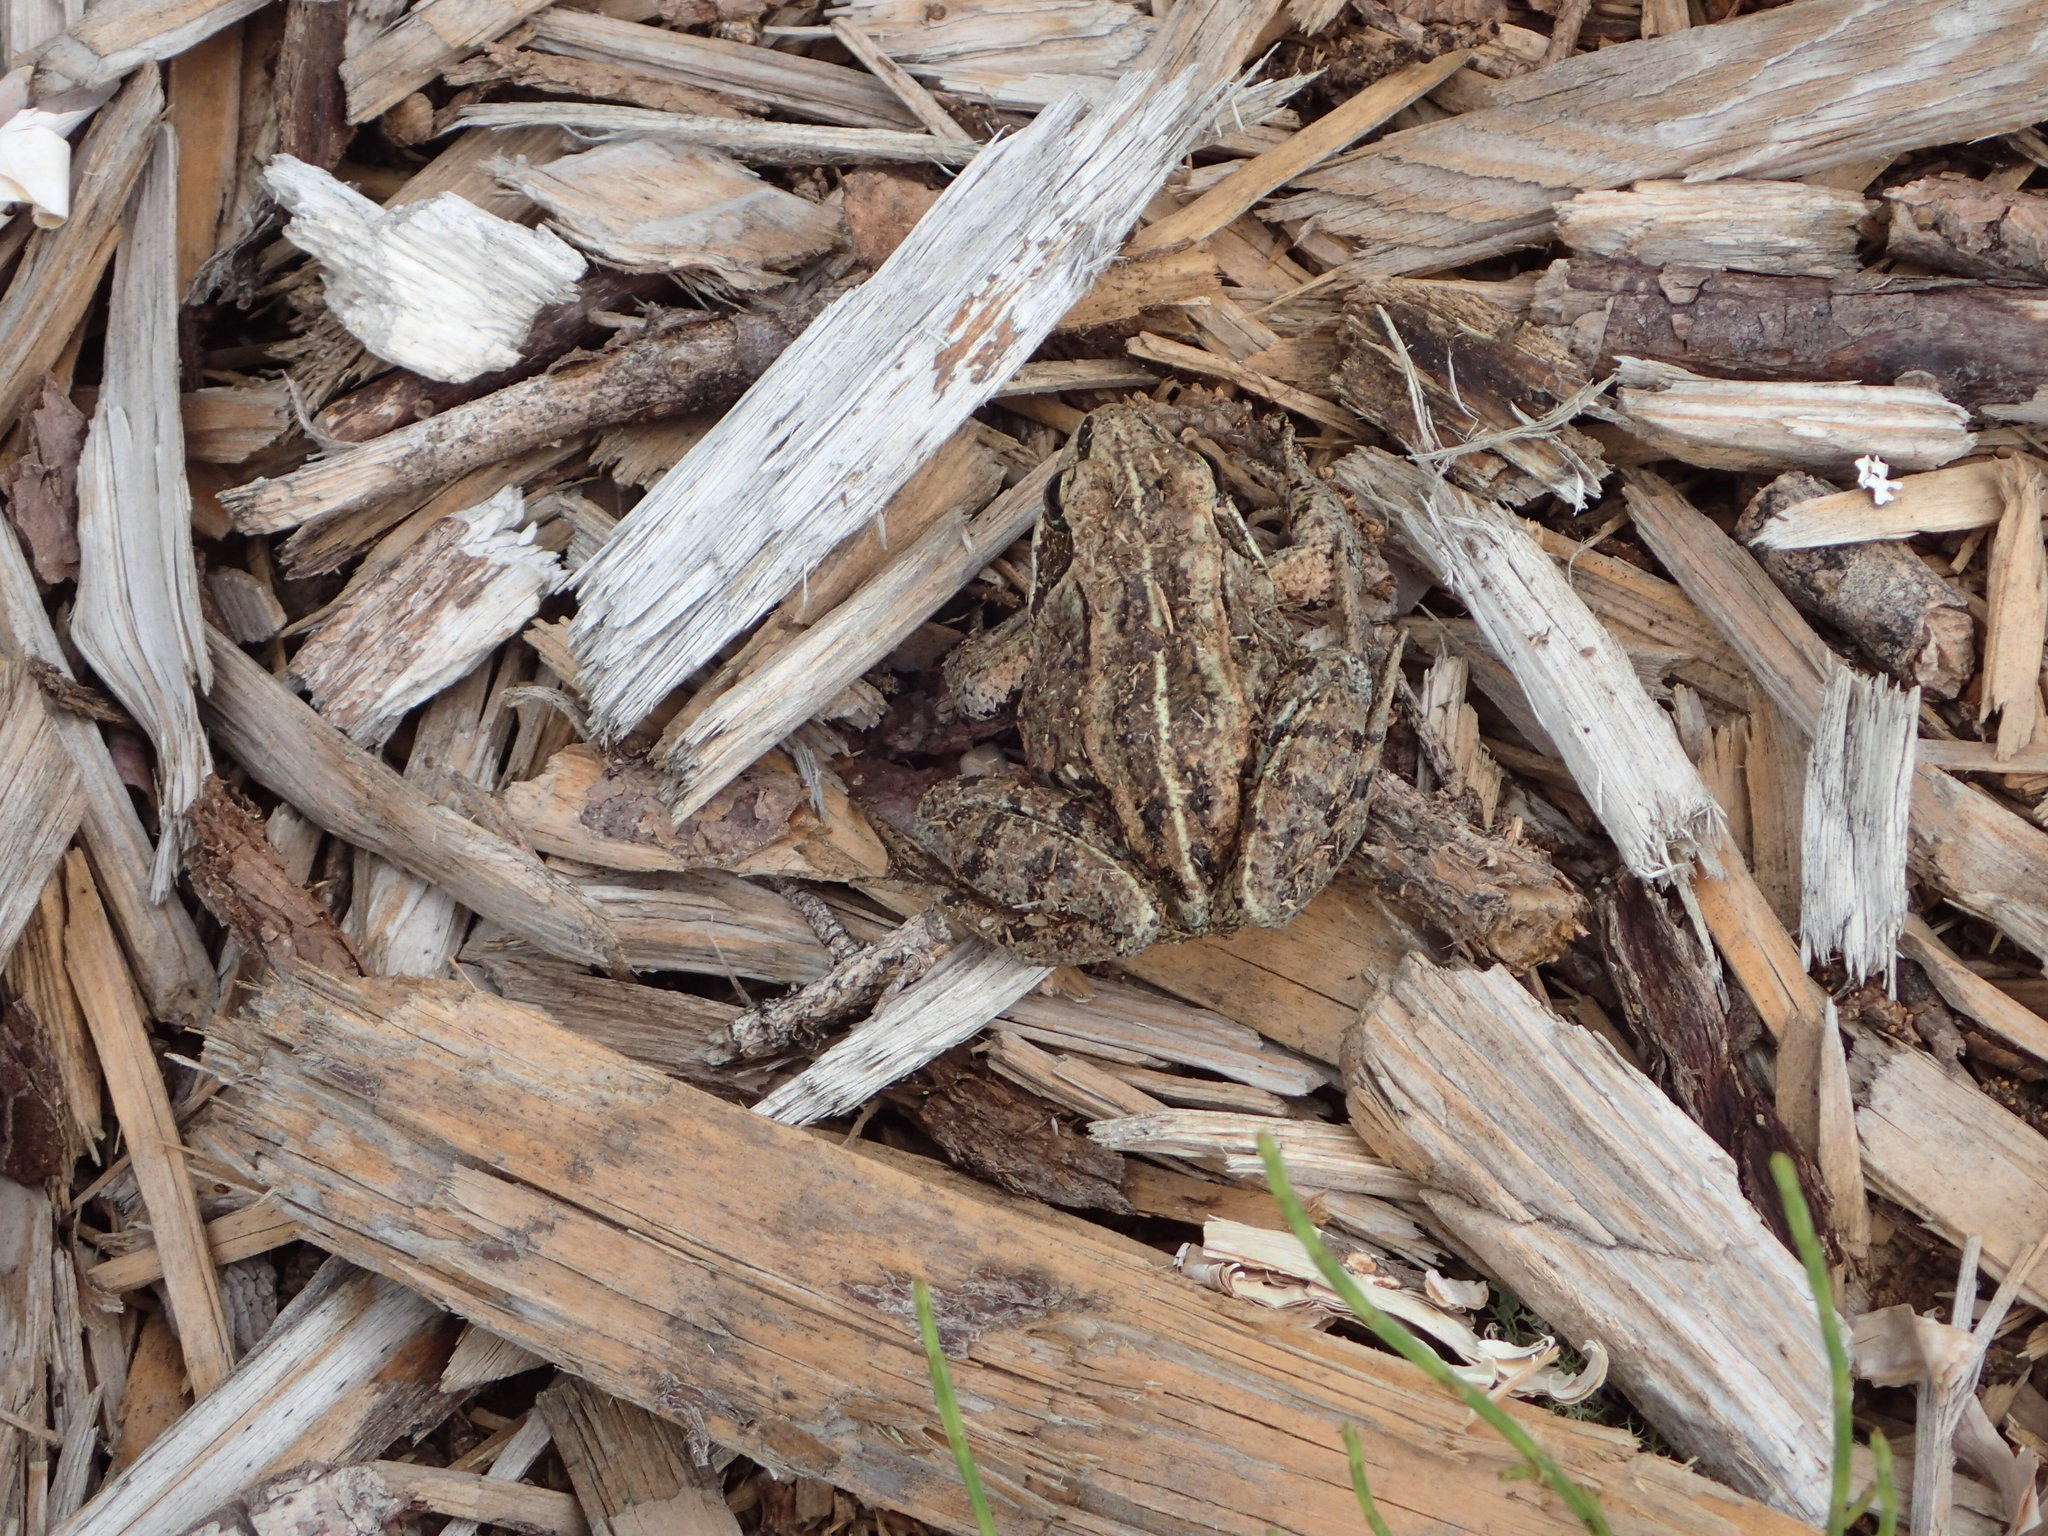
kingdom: Animalia
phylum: Chordata
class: Amphibia
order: Anura
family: Ranidae
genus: Lithobates
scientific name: Lithobates sylvaticus
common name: Wood frog
